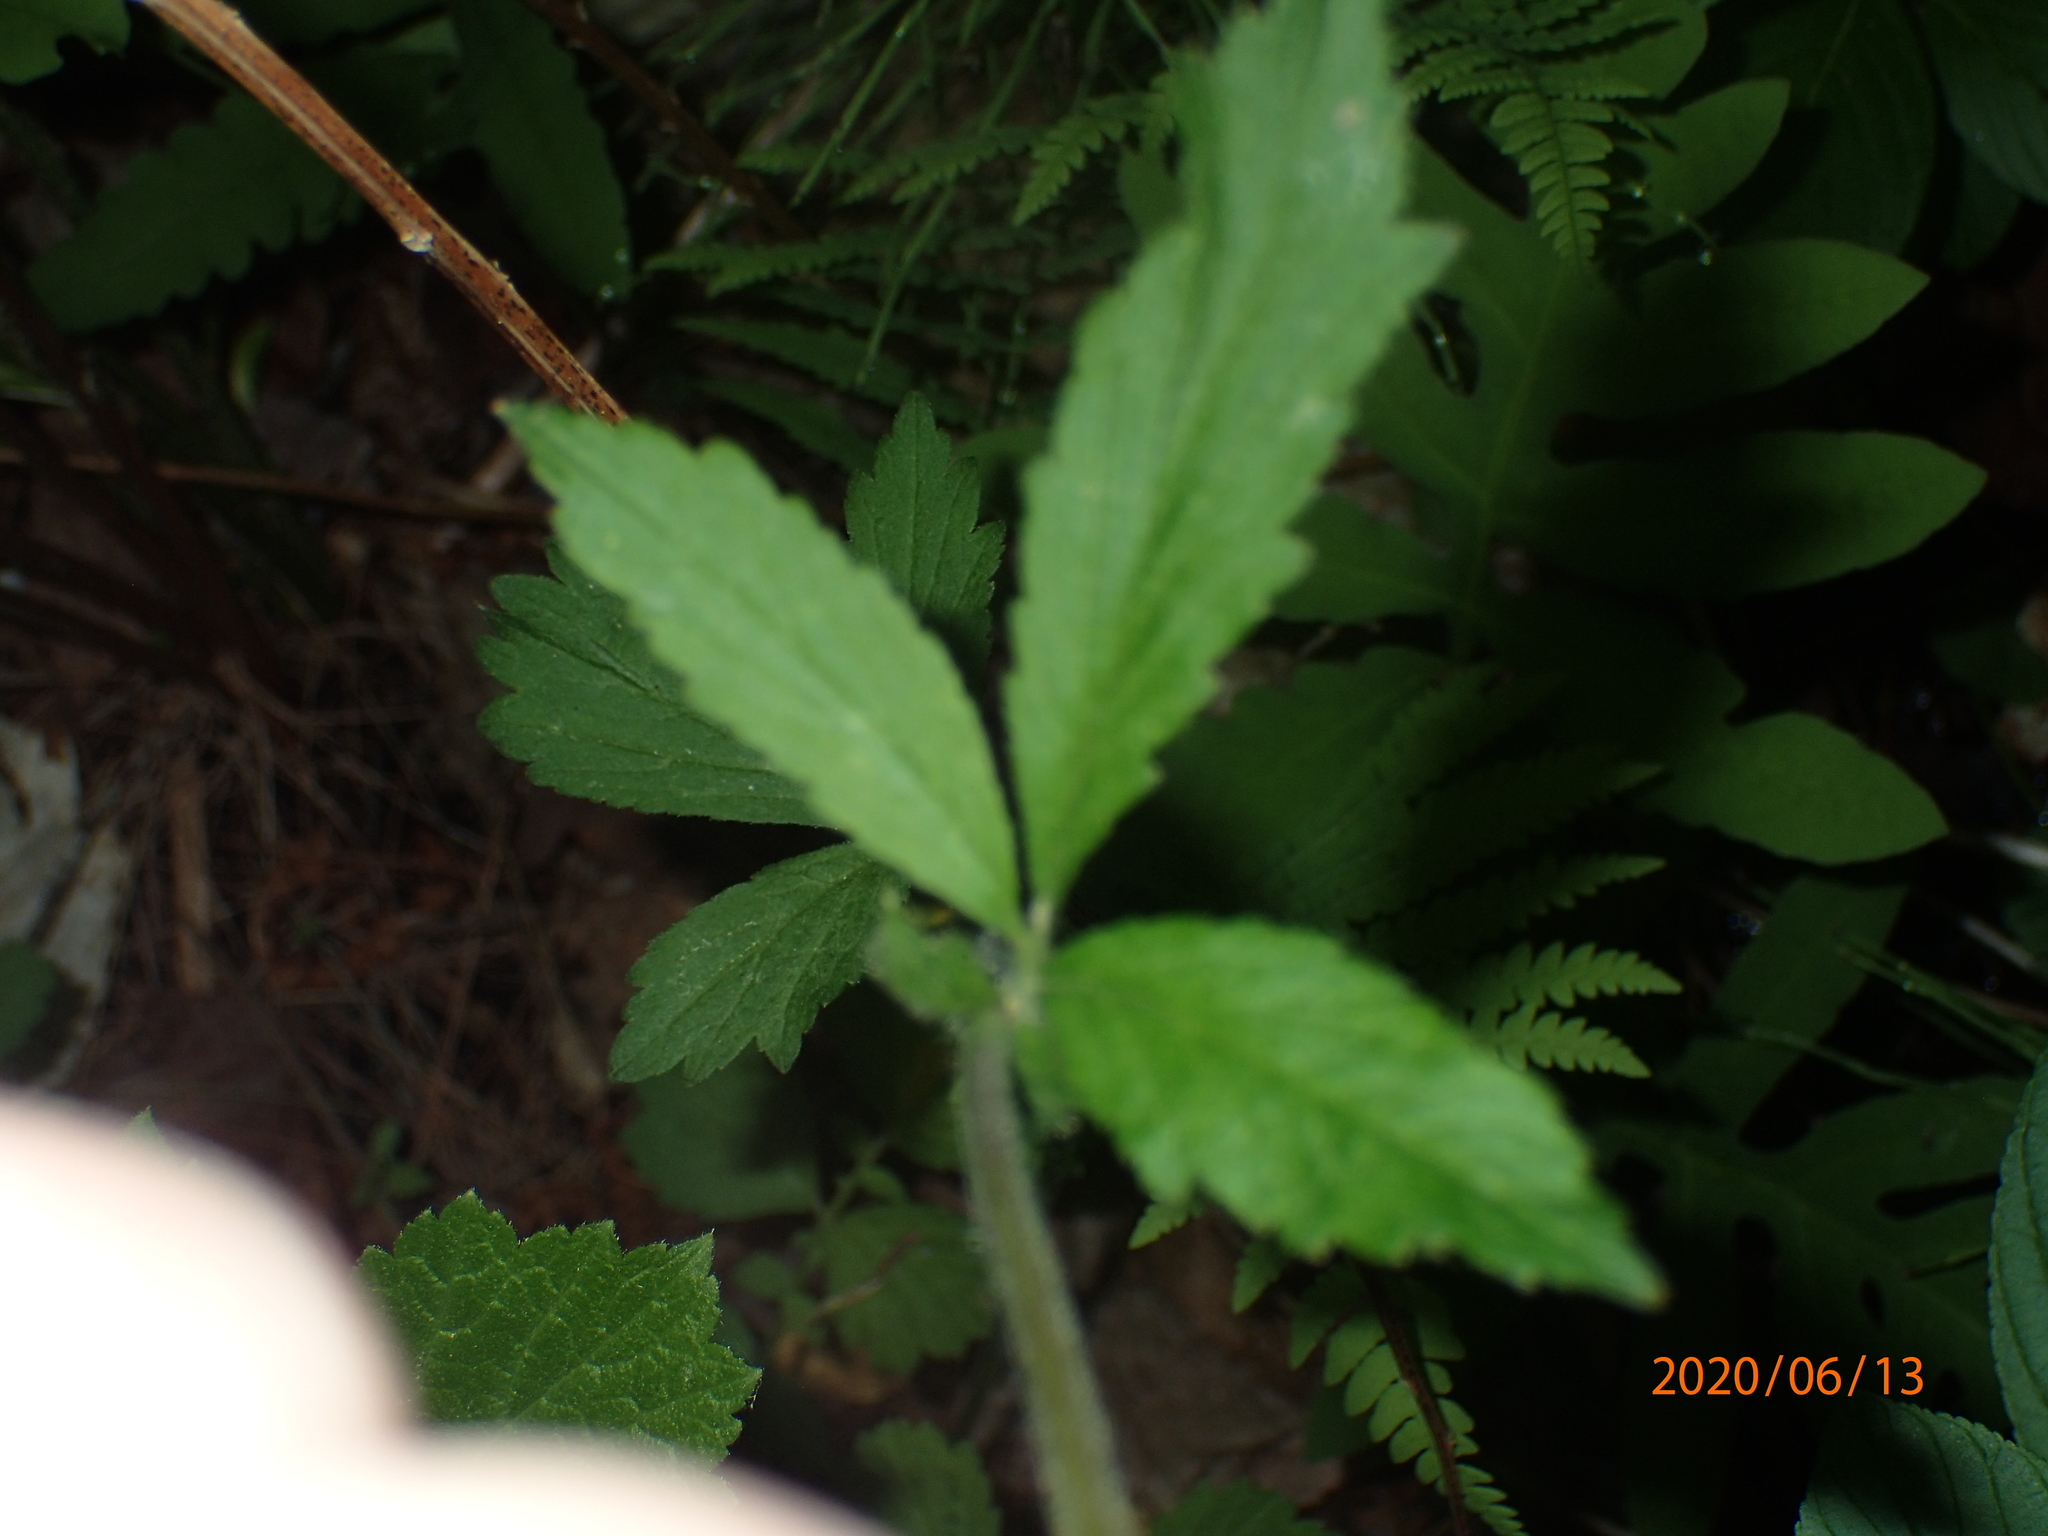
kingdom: Plantae
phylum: Tracheophyta
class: Magnoliopsida
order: Rosales
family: Rosaceae
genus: Geum
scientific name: Geum rivale
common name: Water avens
